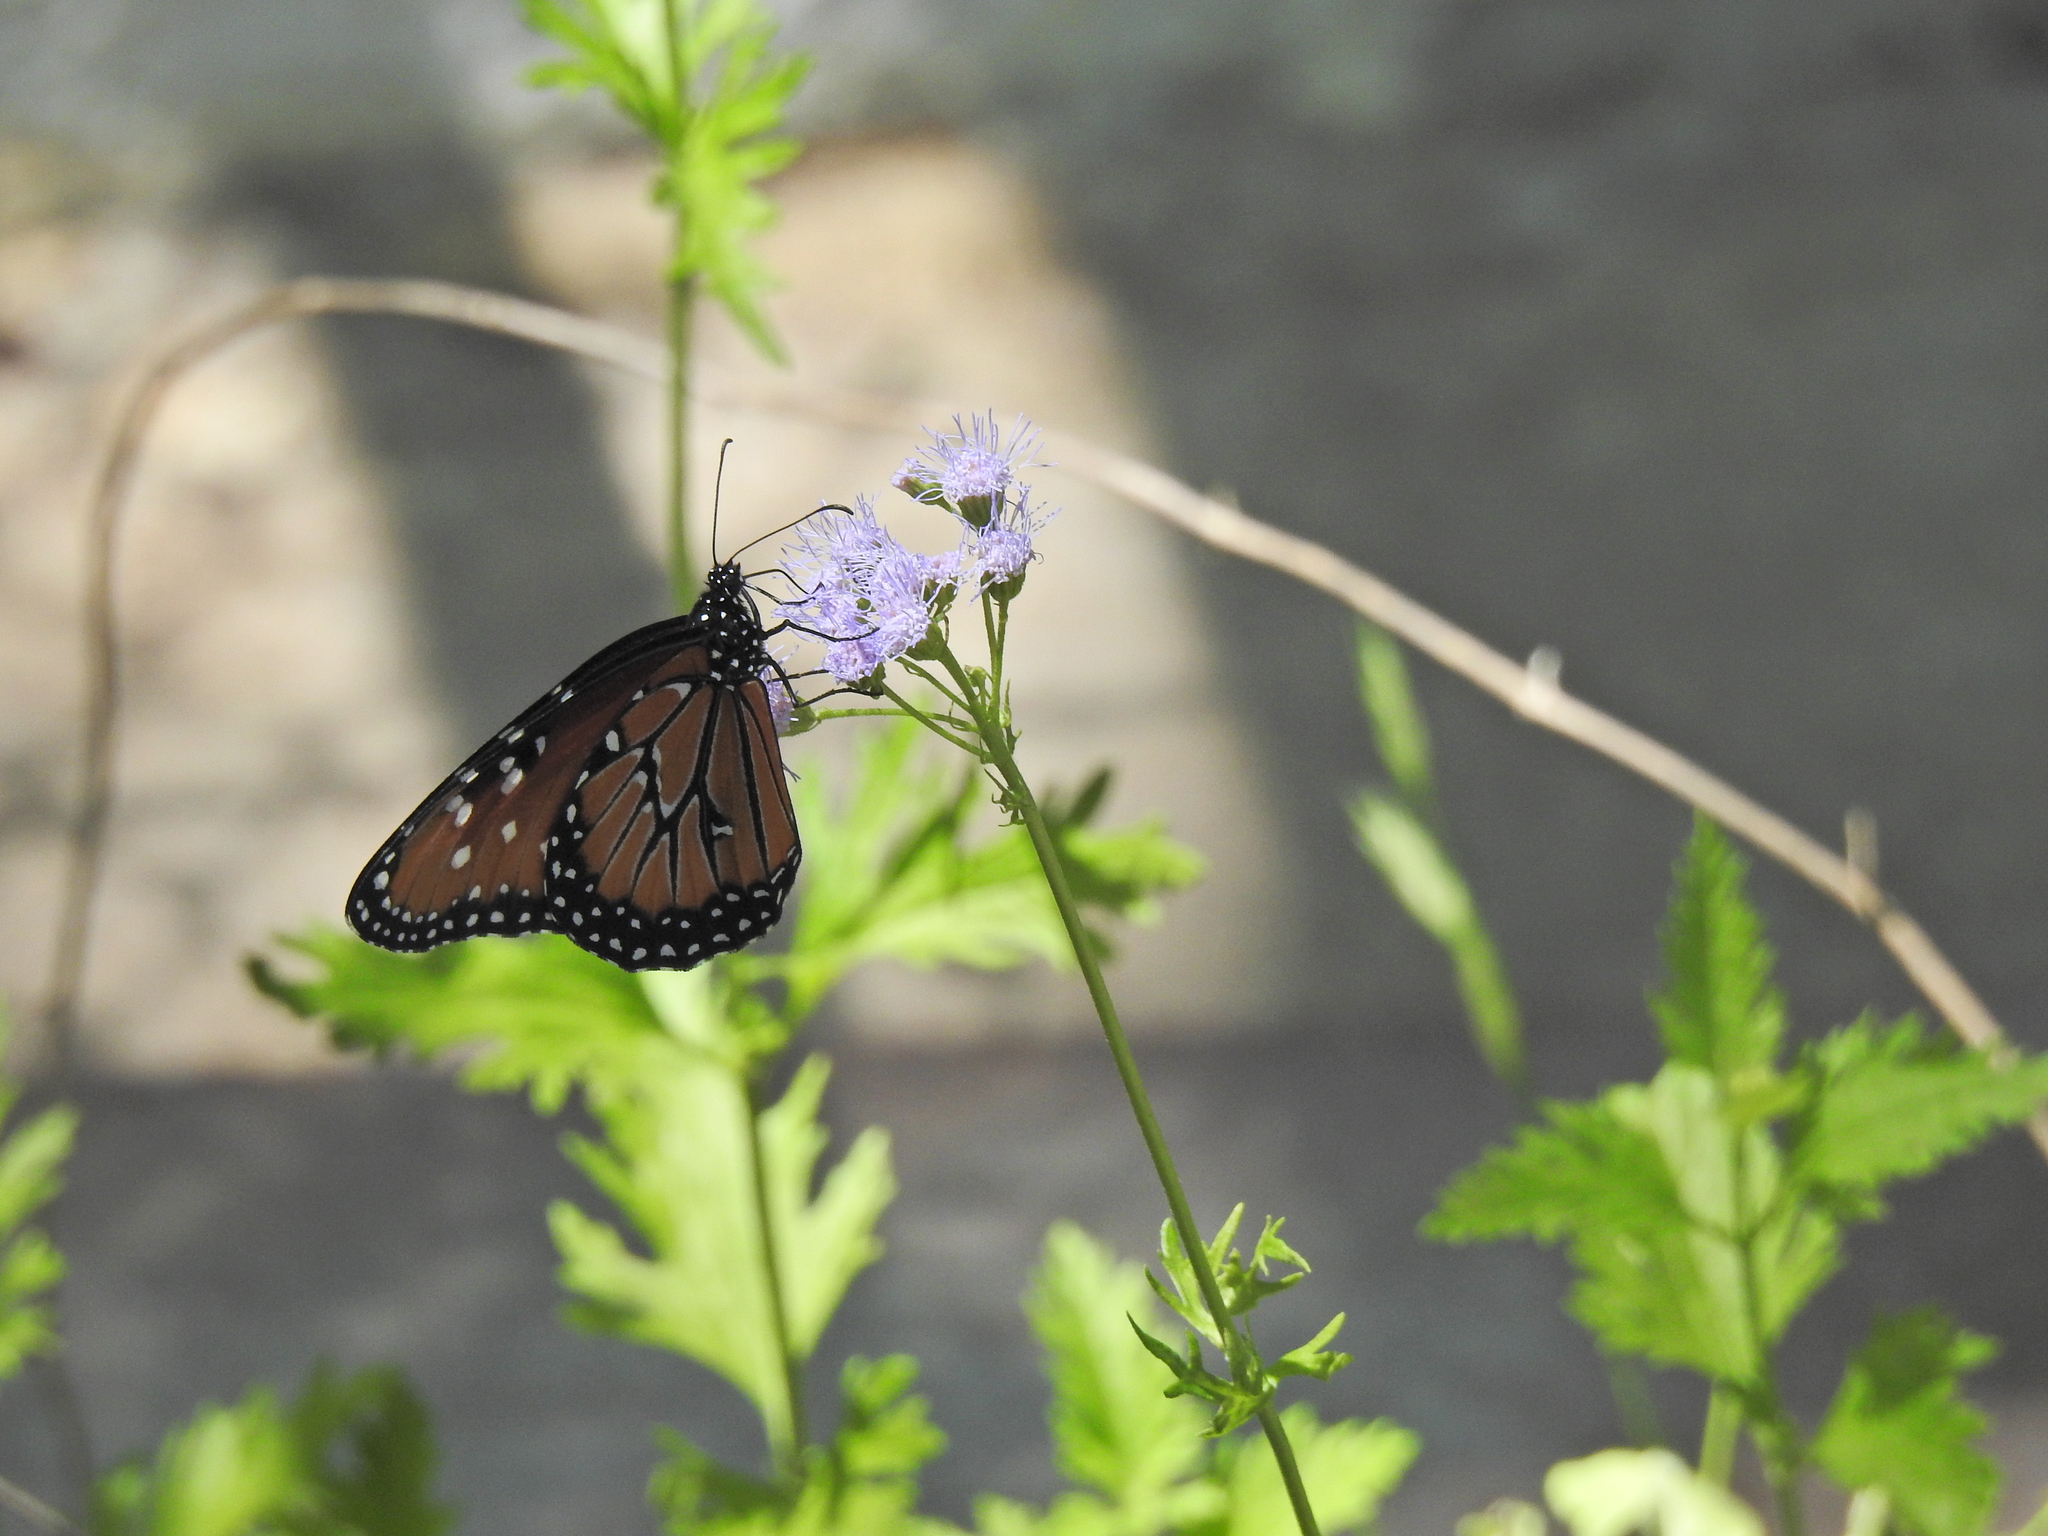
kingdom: Animalia
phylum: Arthropoda
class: Insecta
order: Lepidoptera
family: Nymphalidae
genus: Danaus
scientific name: Danaus gilippus
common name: Queen
